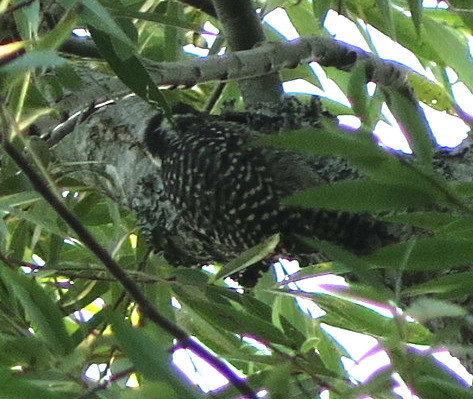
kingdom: Animalia
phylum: Chordata
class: Aves
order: Piciformes
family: Picidae
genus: Veniliornis
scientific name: Veniliornis mixtus
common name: Checkered woodpecker
